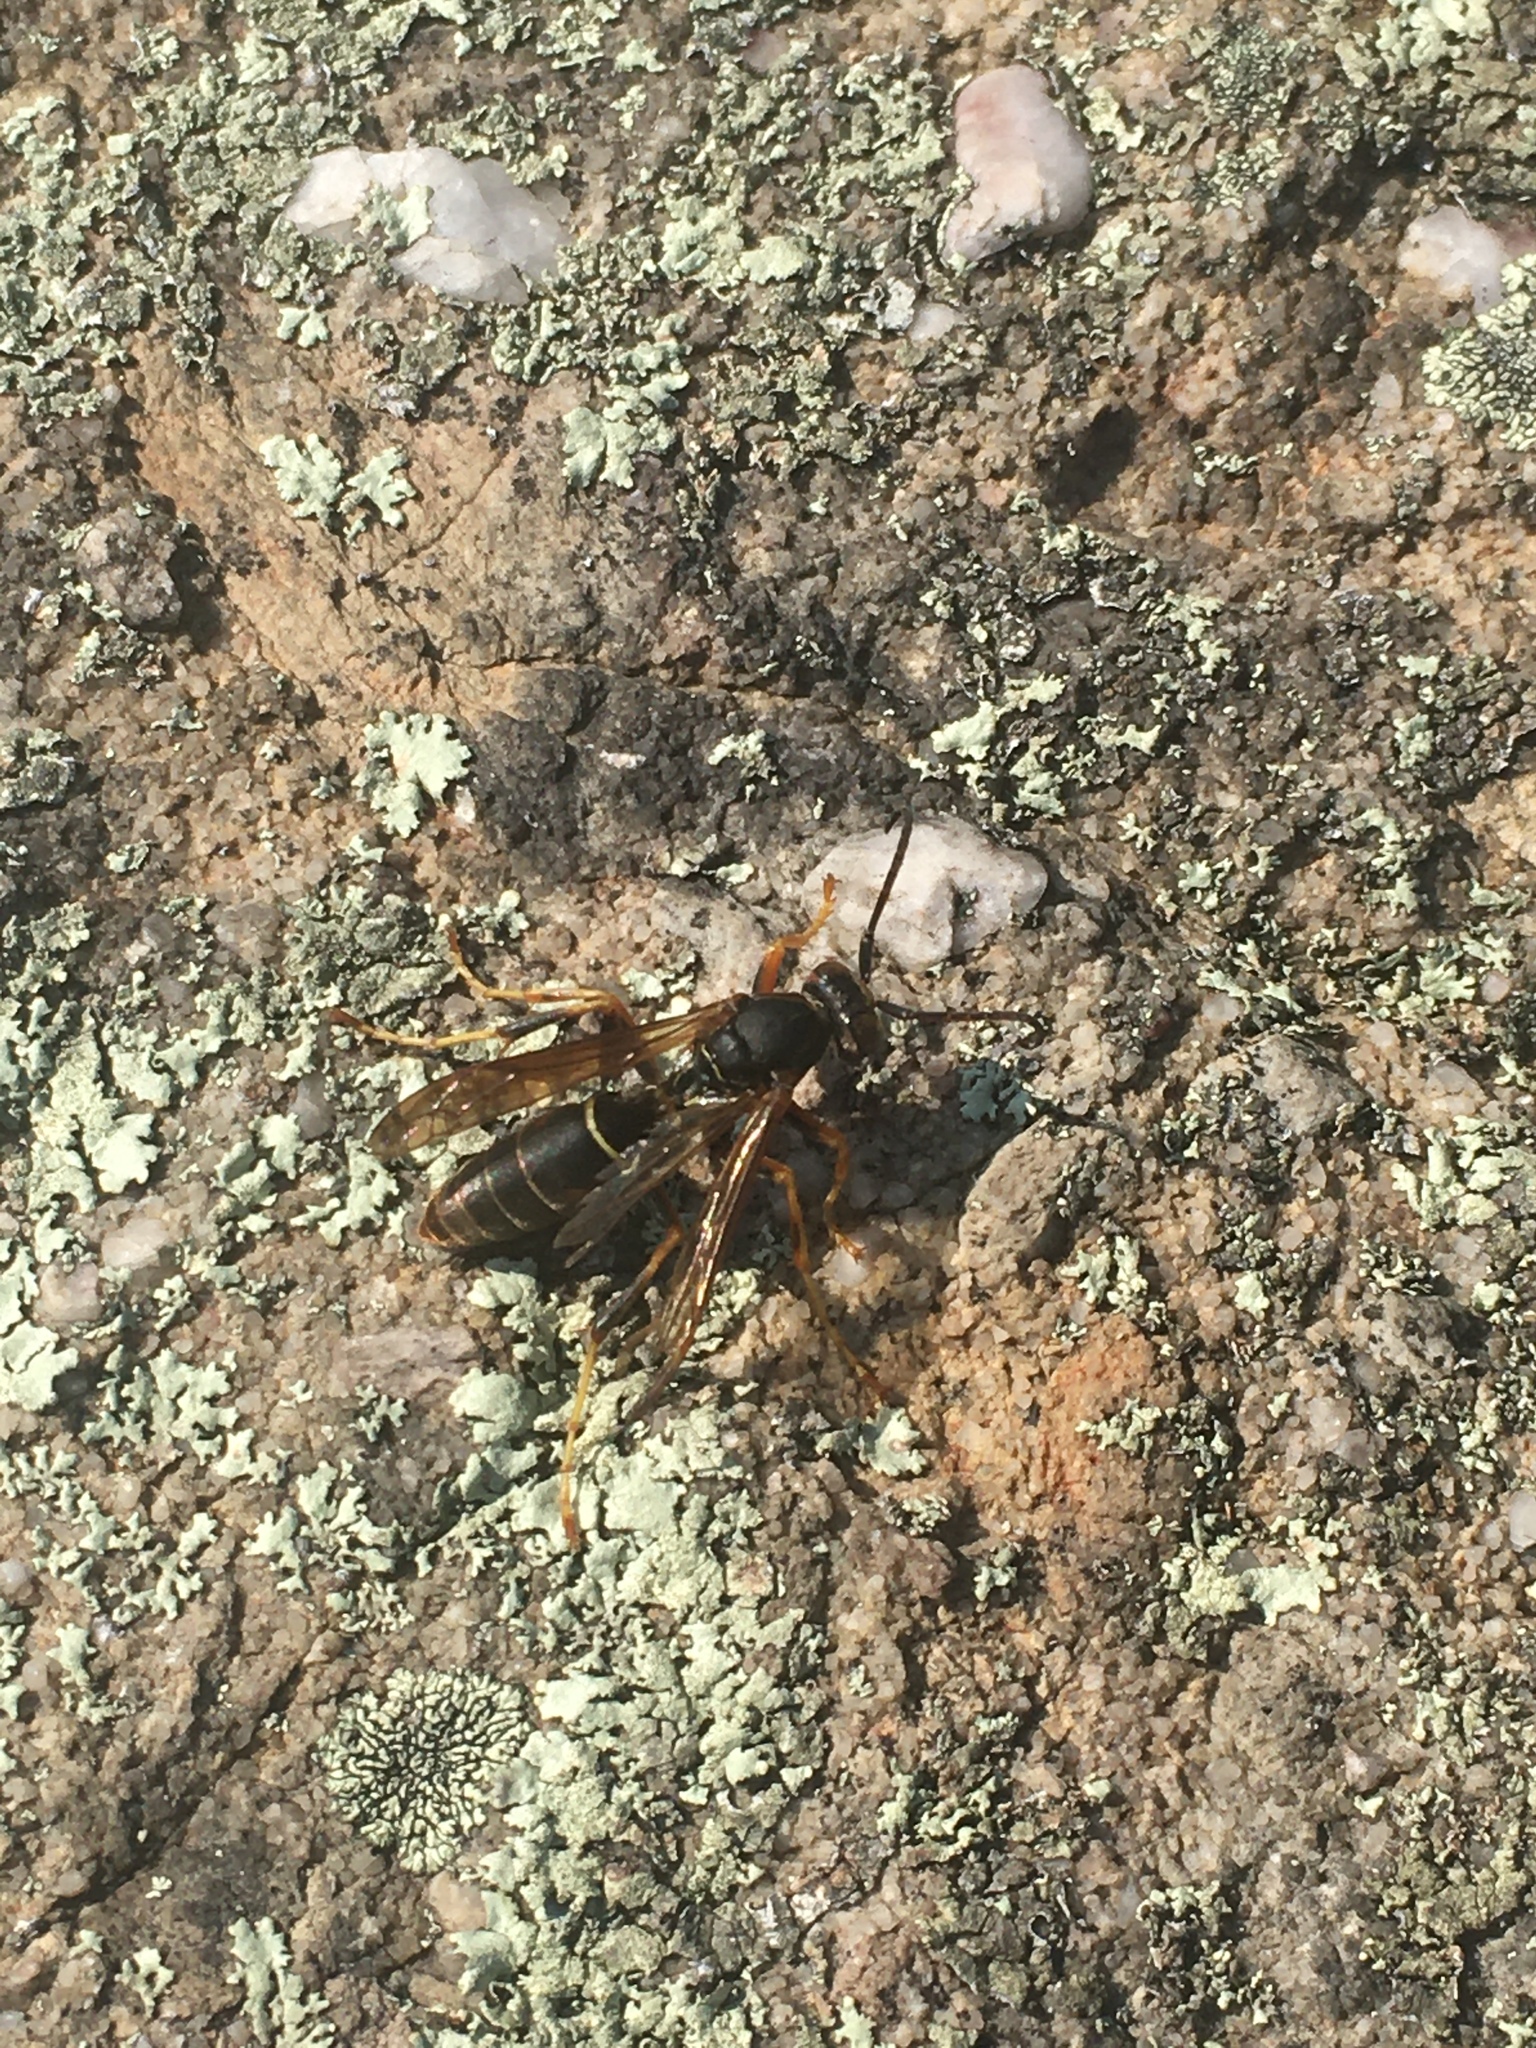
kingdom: Animalia
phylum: Arthropoda
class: Insecta
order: Hymenoptera
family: Eumenidae
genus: Polistes
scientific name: Polistes fuscatus
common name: Dark paper wasp
